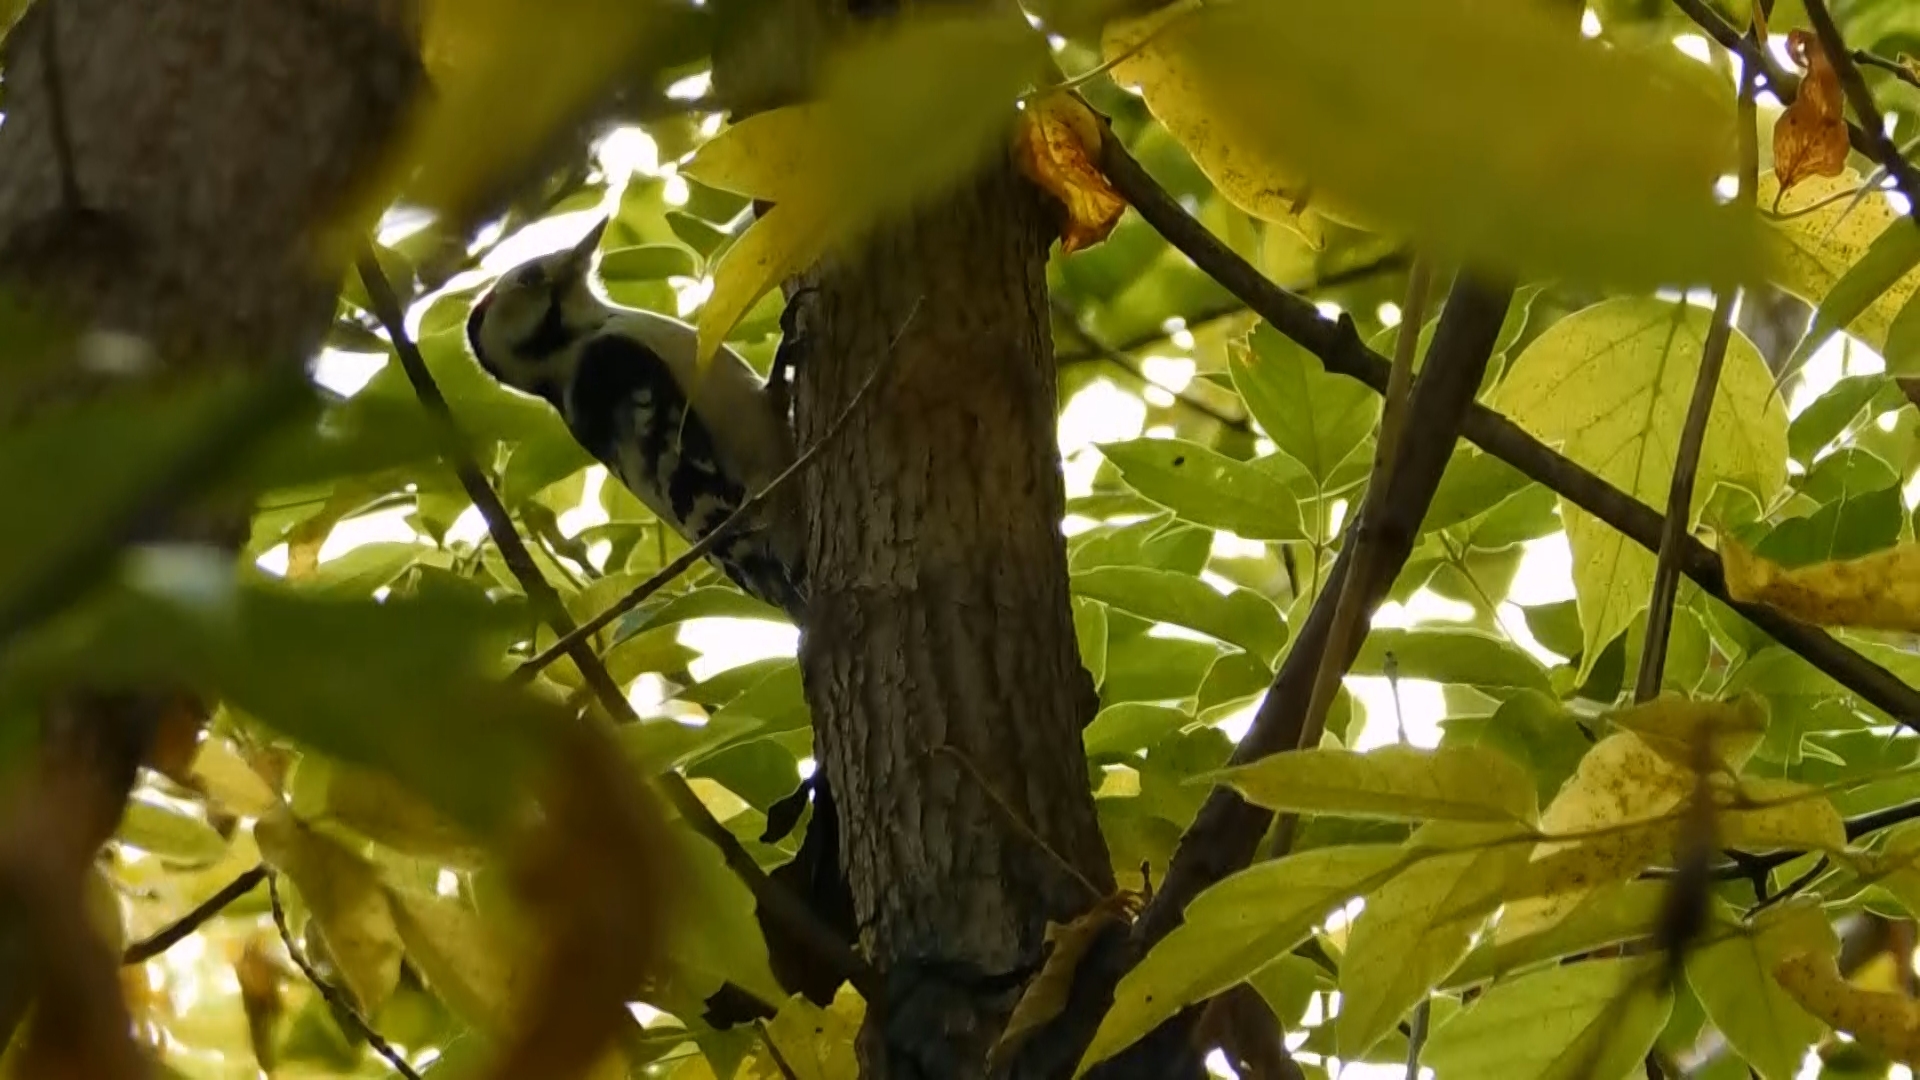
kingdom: Animalia
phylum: Chordata
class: Aves
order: Piciformes
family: Picidae
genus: Dryobates
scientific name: Dryobates minor
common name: Lesser spotted woodpecker
